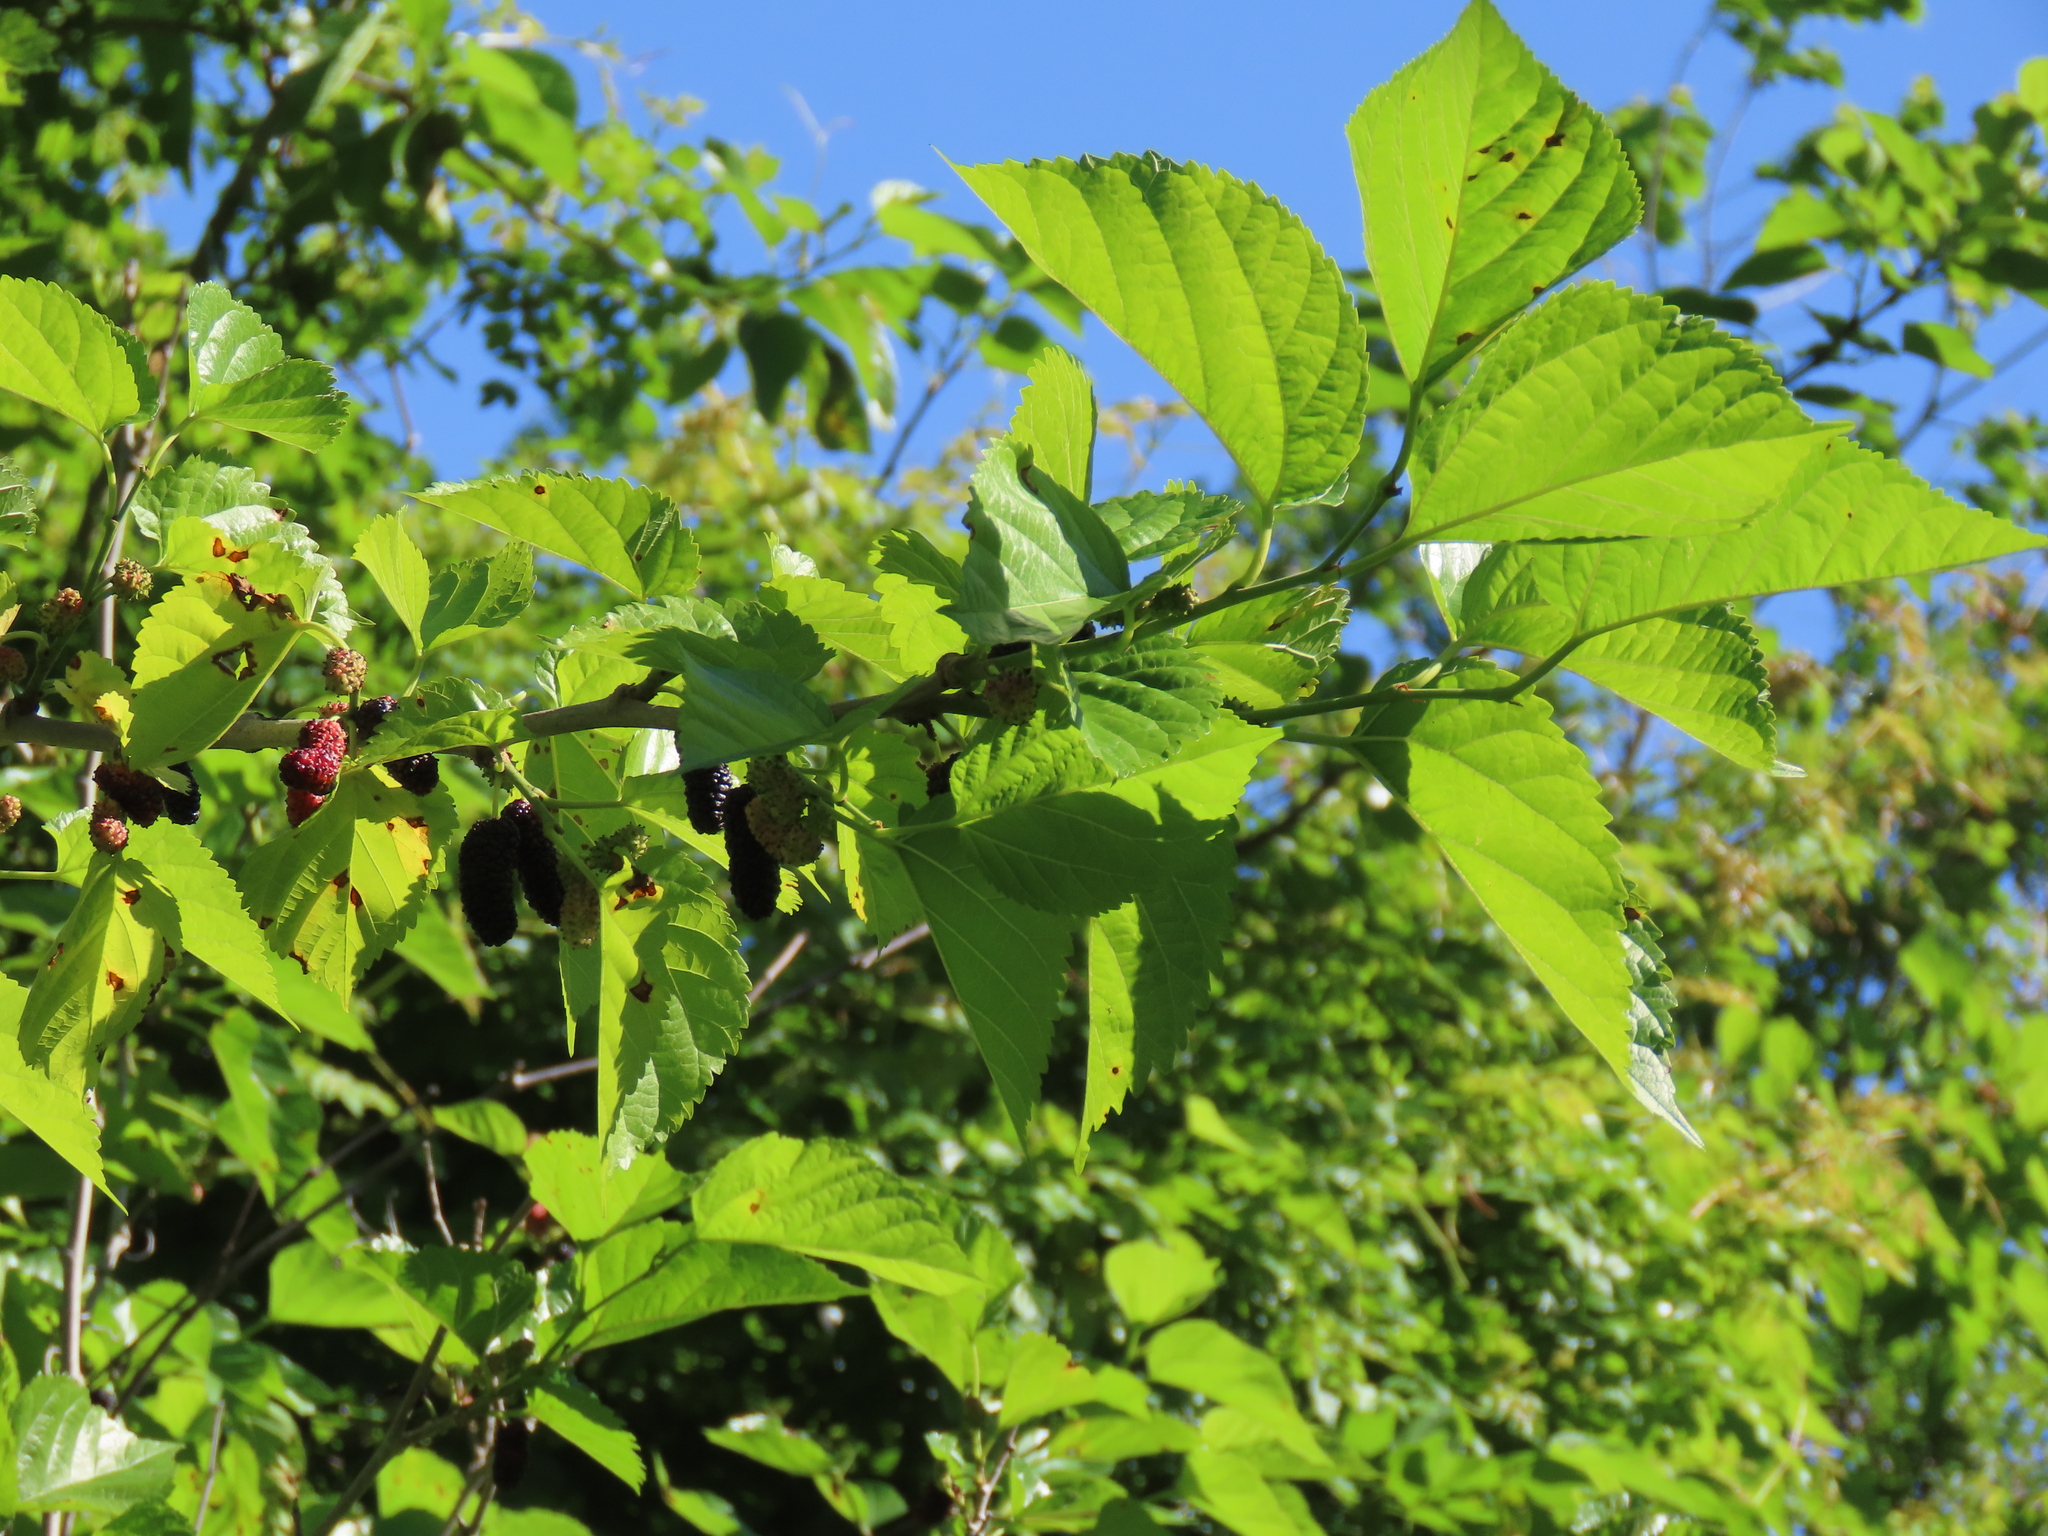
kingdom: Plantae
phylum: Tracheophyta
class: Magnoliopsida
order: Rosales
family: Moraceae
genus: Morus
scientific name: Morus alba
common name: White mulberry
